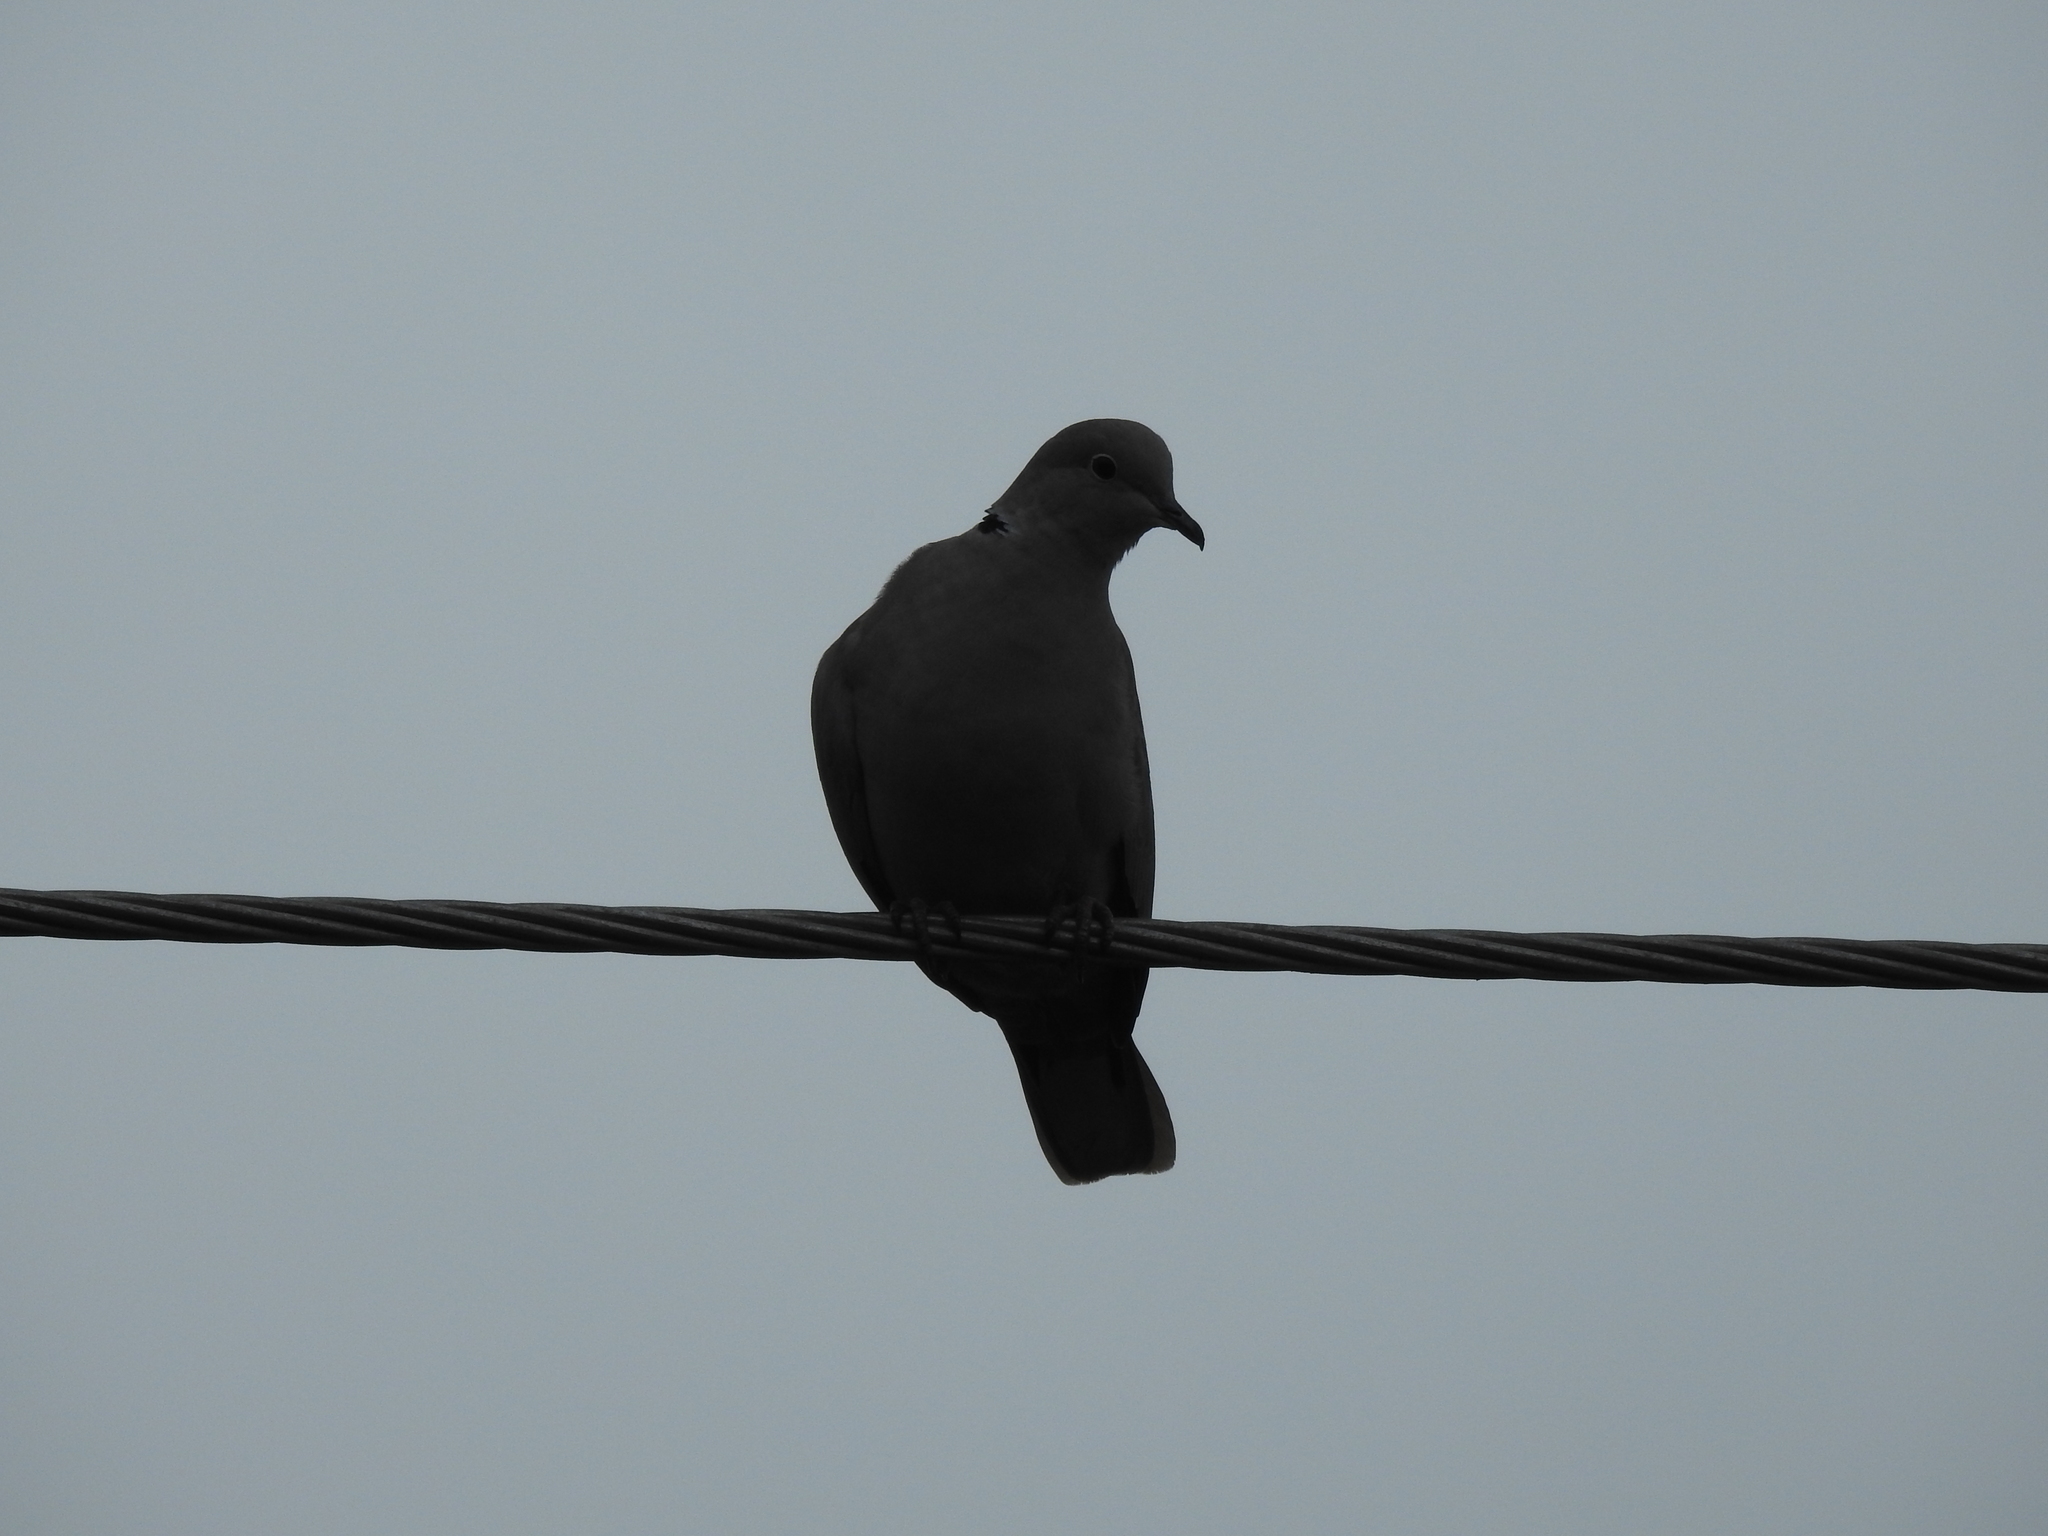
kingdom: Animalia
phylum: Chordata
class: Aves
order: Columbiformes
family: Columbidae
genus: Streptopelia
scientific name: Streptopelia decaocto
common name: Eurasian collared dove
